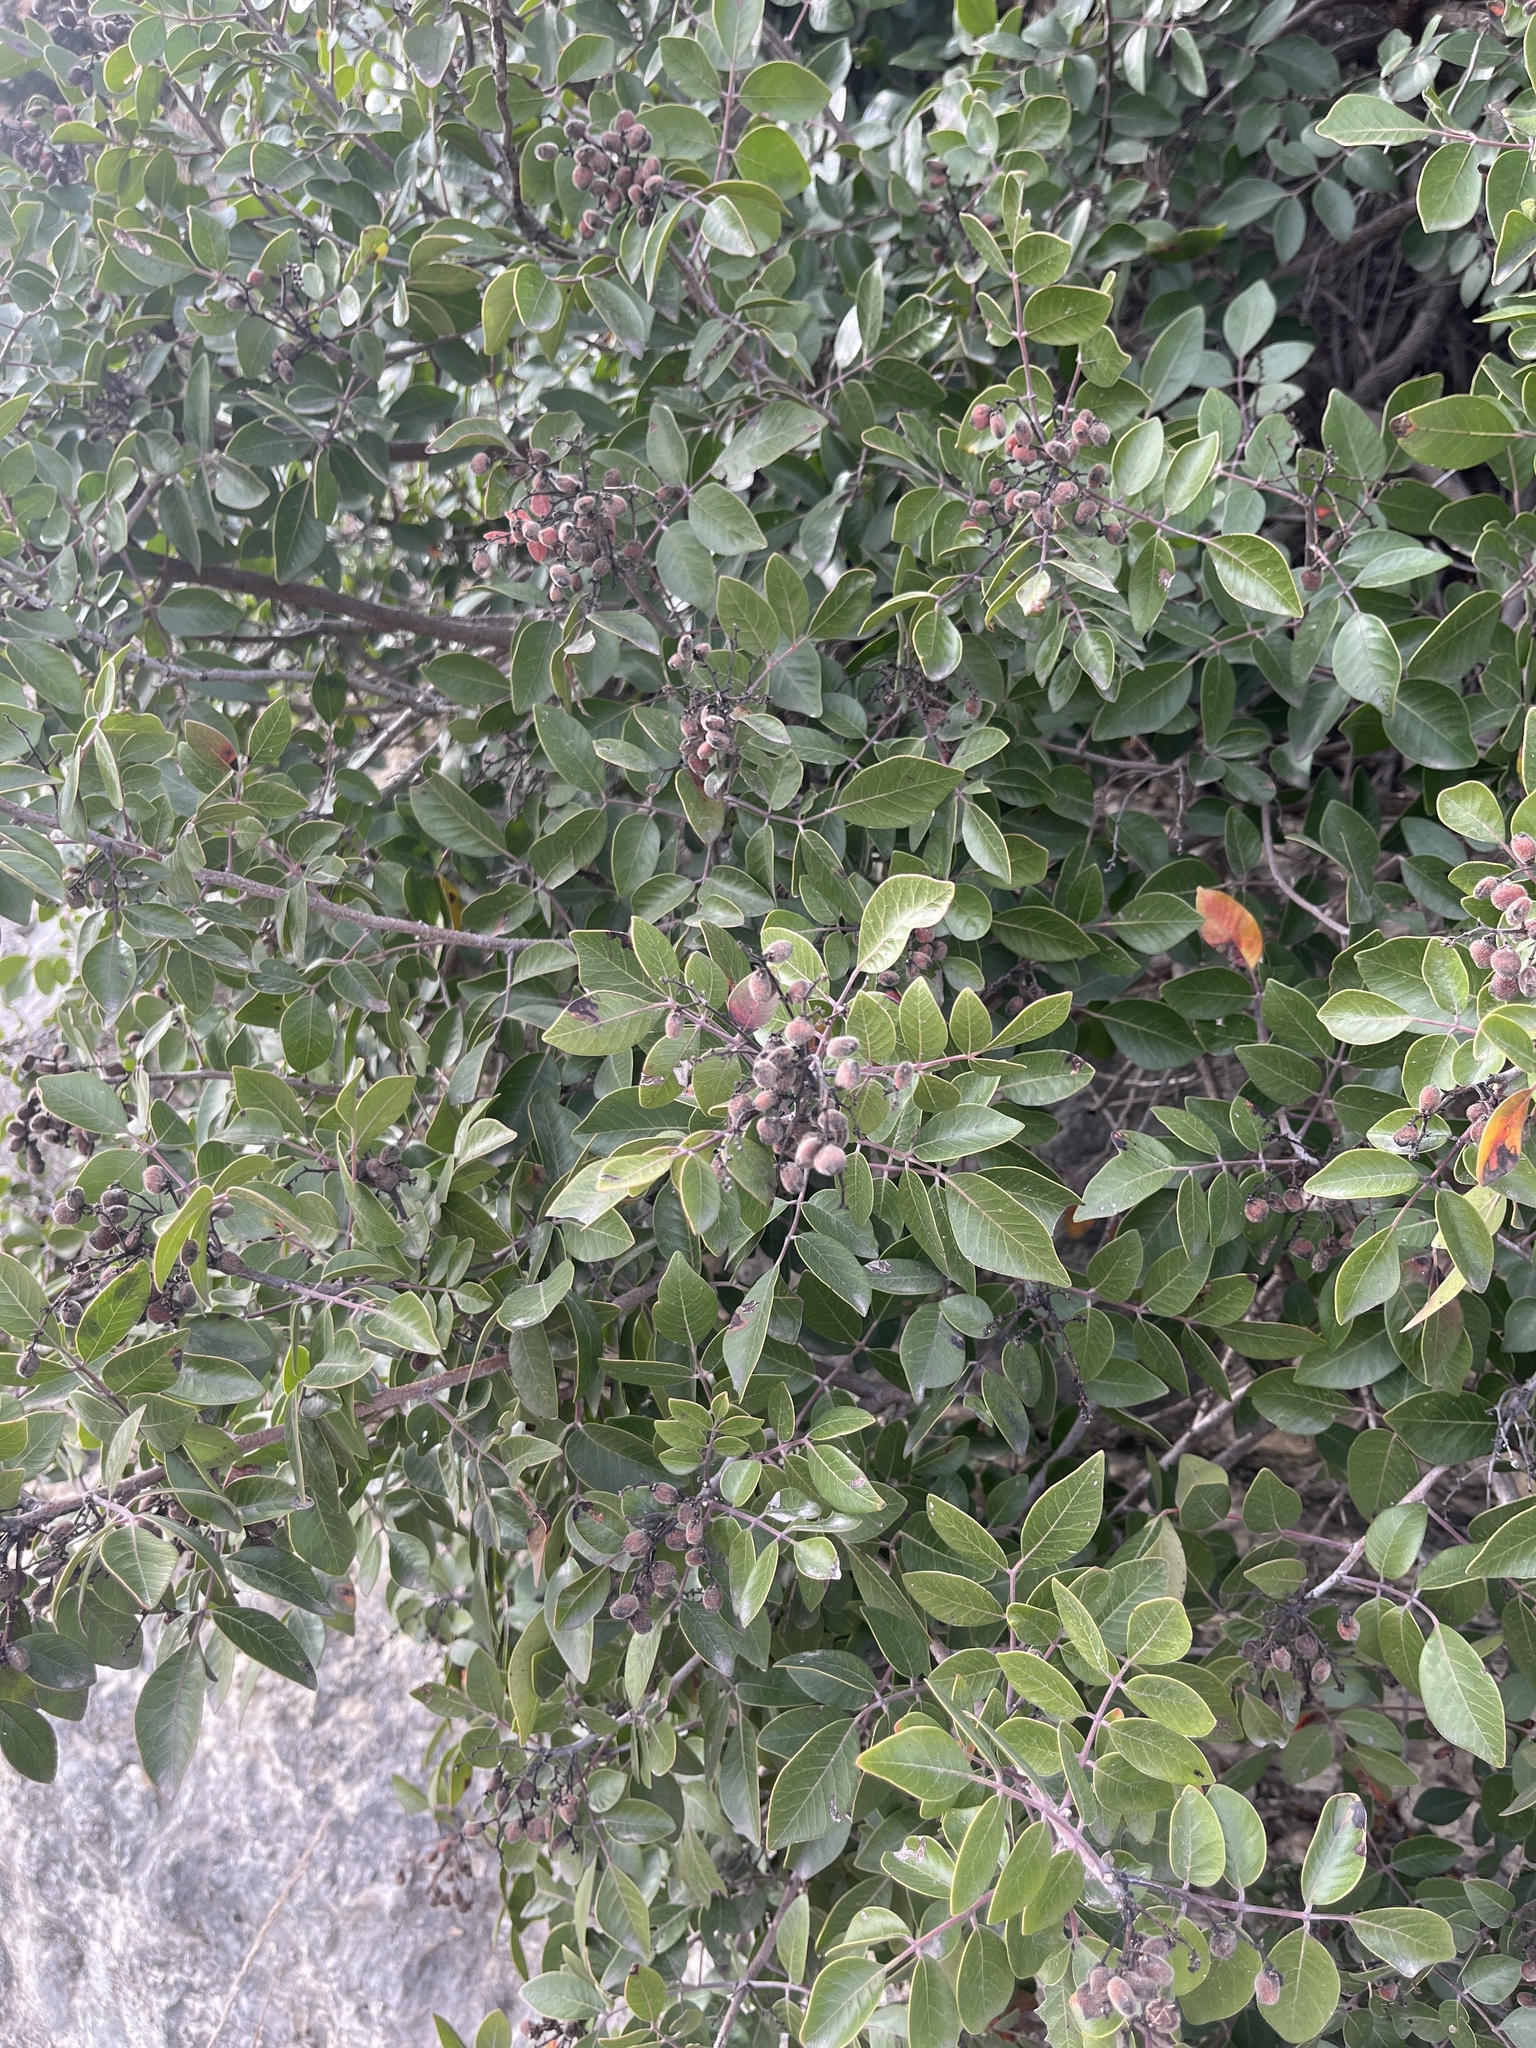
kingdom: Plantae
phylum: Tracheophyta
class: Magnoliopsida
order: Sapindales
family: Anacardiaceae
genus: Rhus
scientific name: Rhus virens
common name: Evergreen sumac
